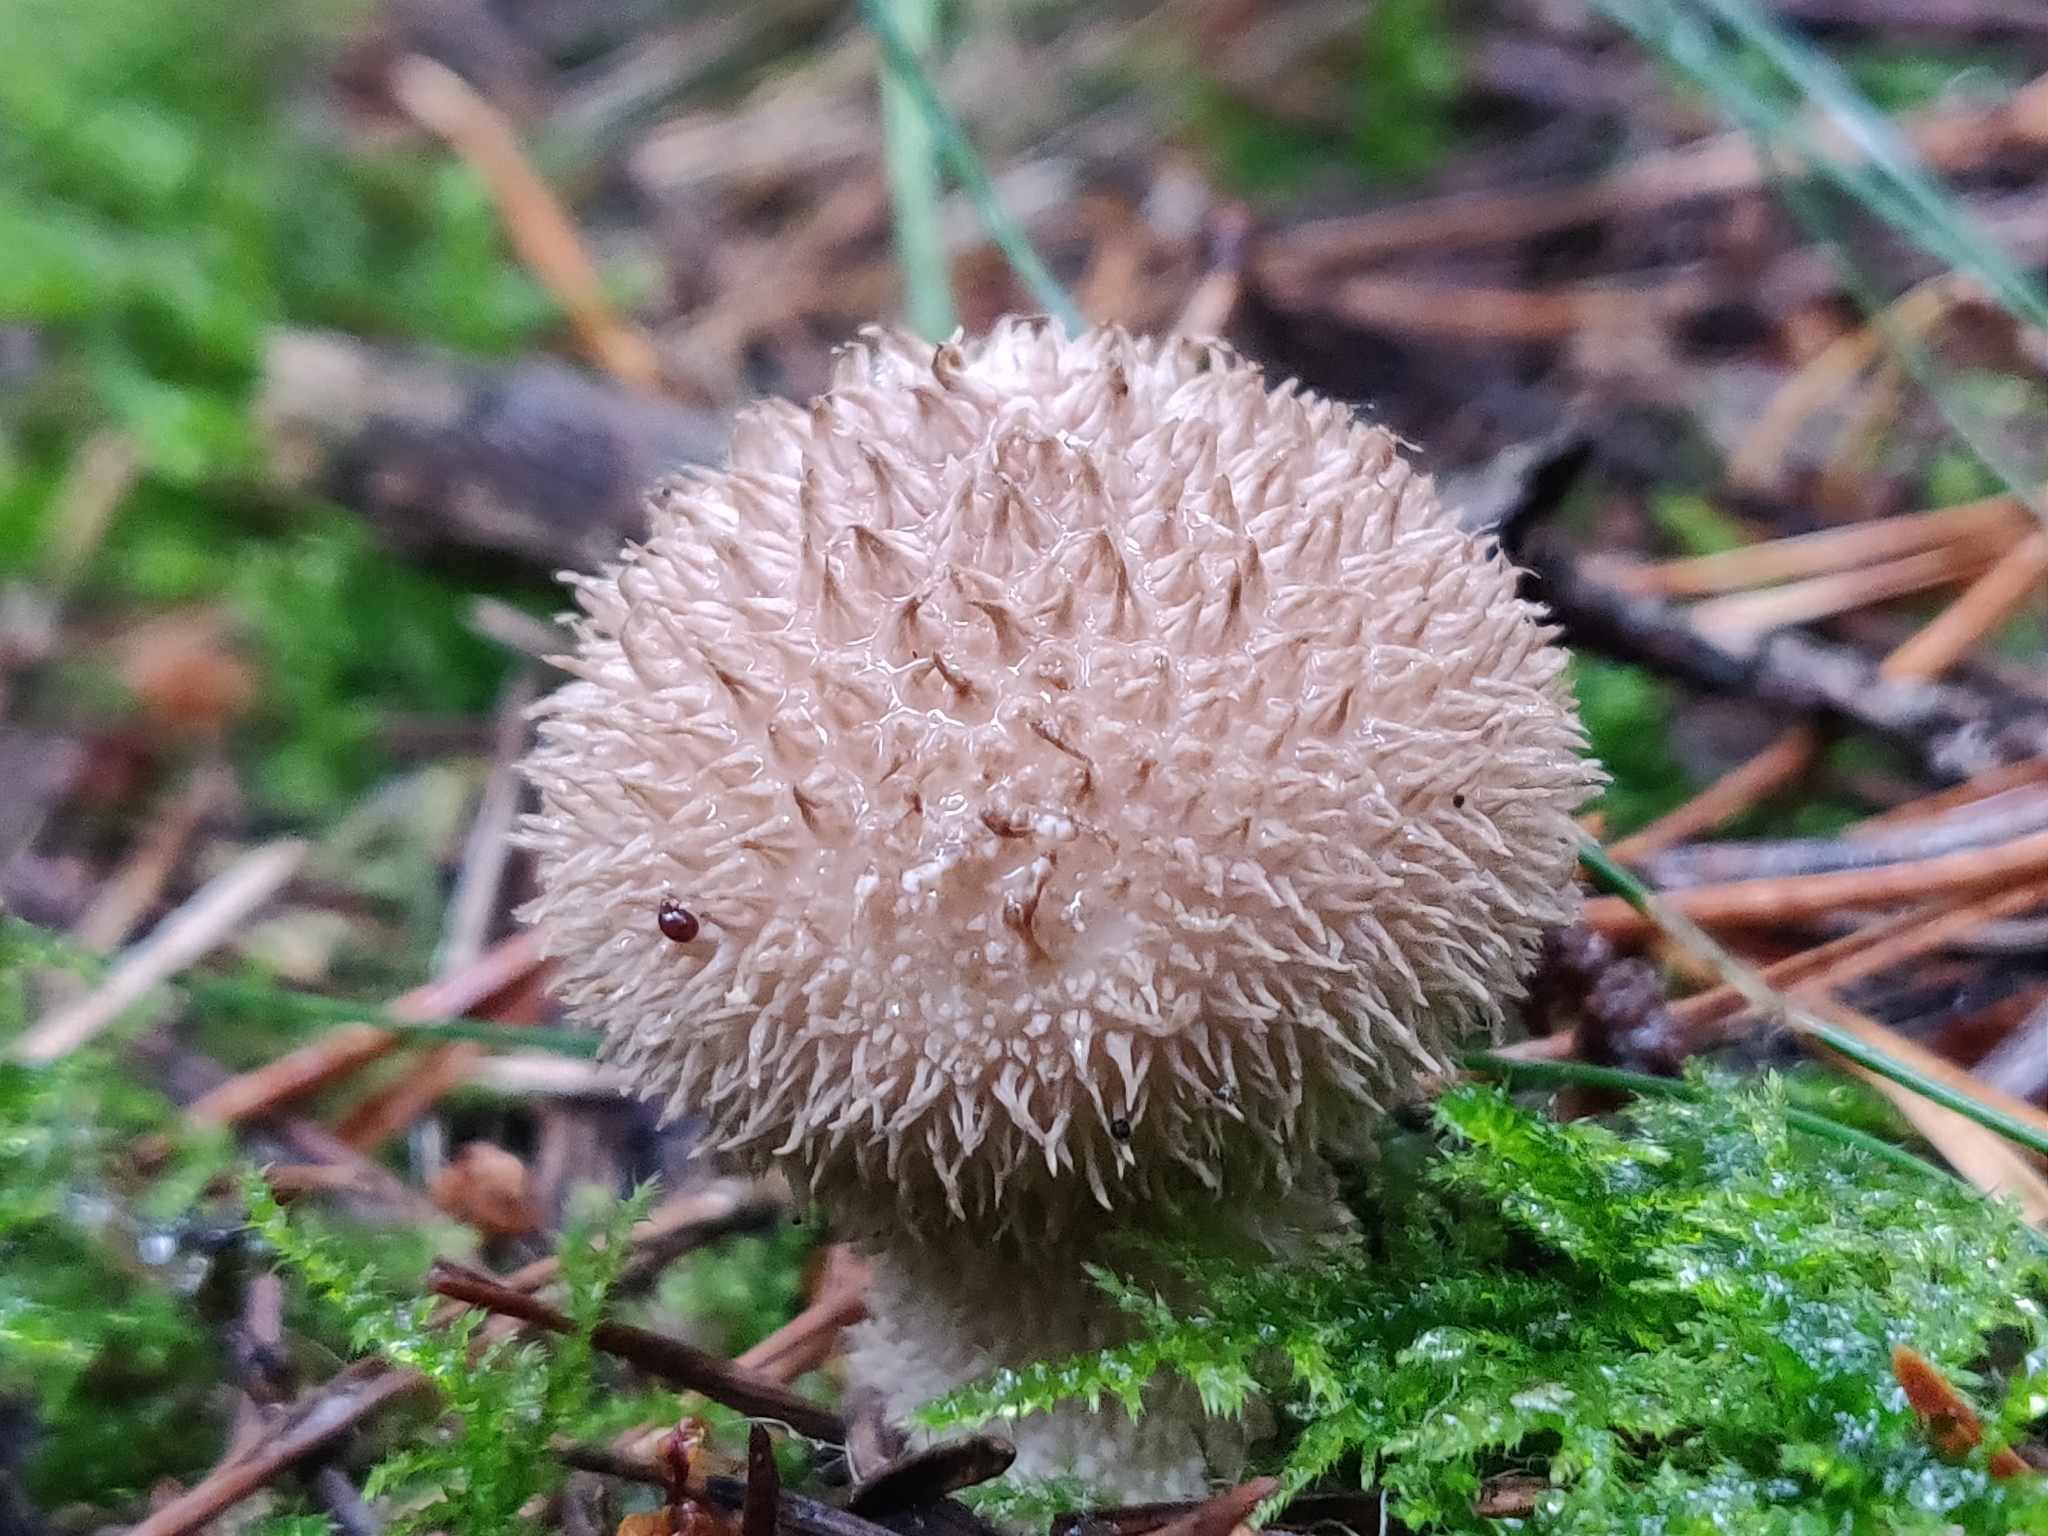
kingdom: Fungi
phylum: Basidiomycota
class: Agaricomycetes
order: Agaricales
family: Lycoperdaceae
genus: Lycoperdon
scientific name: Lycoperdon echinatum
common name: Hedgehog puffball
